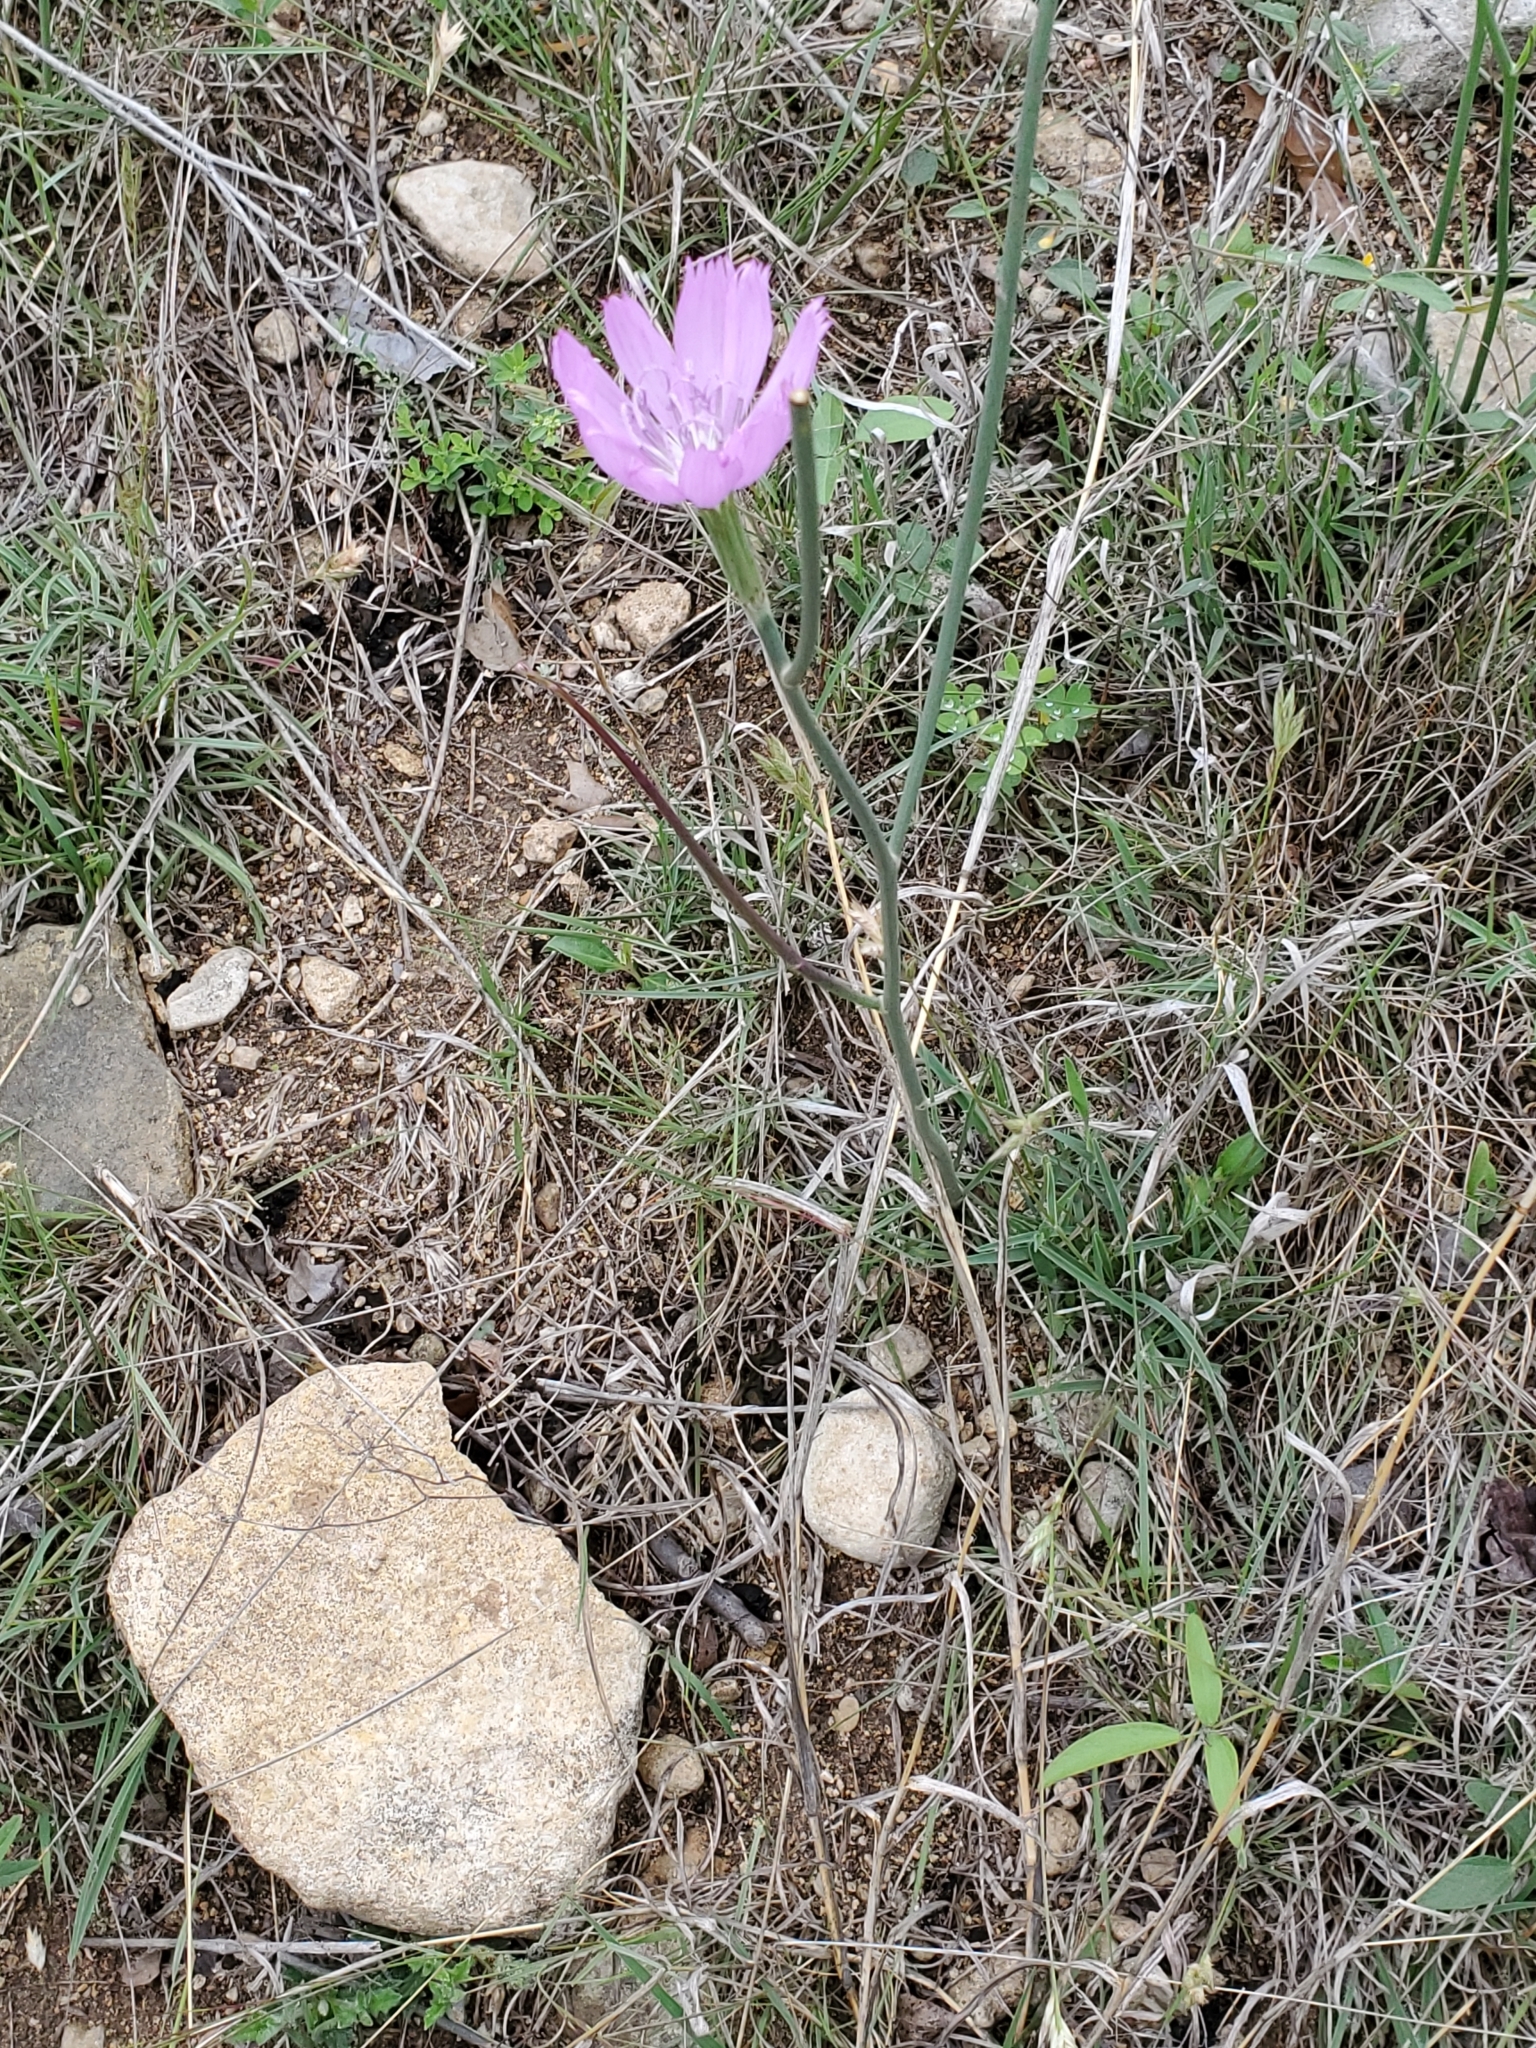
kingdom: Plantae
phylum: Tracheophyta
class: Magnoliopsida
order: Asterales
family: Asteraceae
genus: Lygodesmia
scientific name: Lygodesmia texana
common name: Texas skeleton-plant
